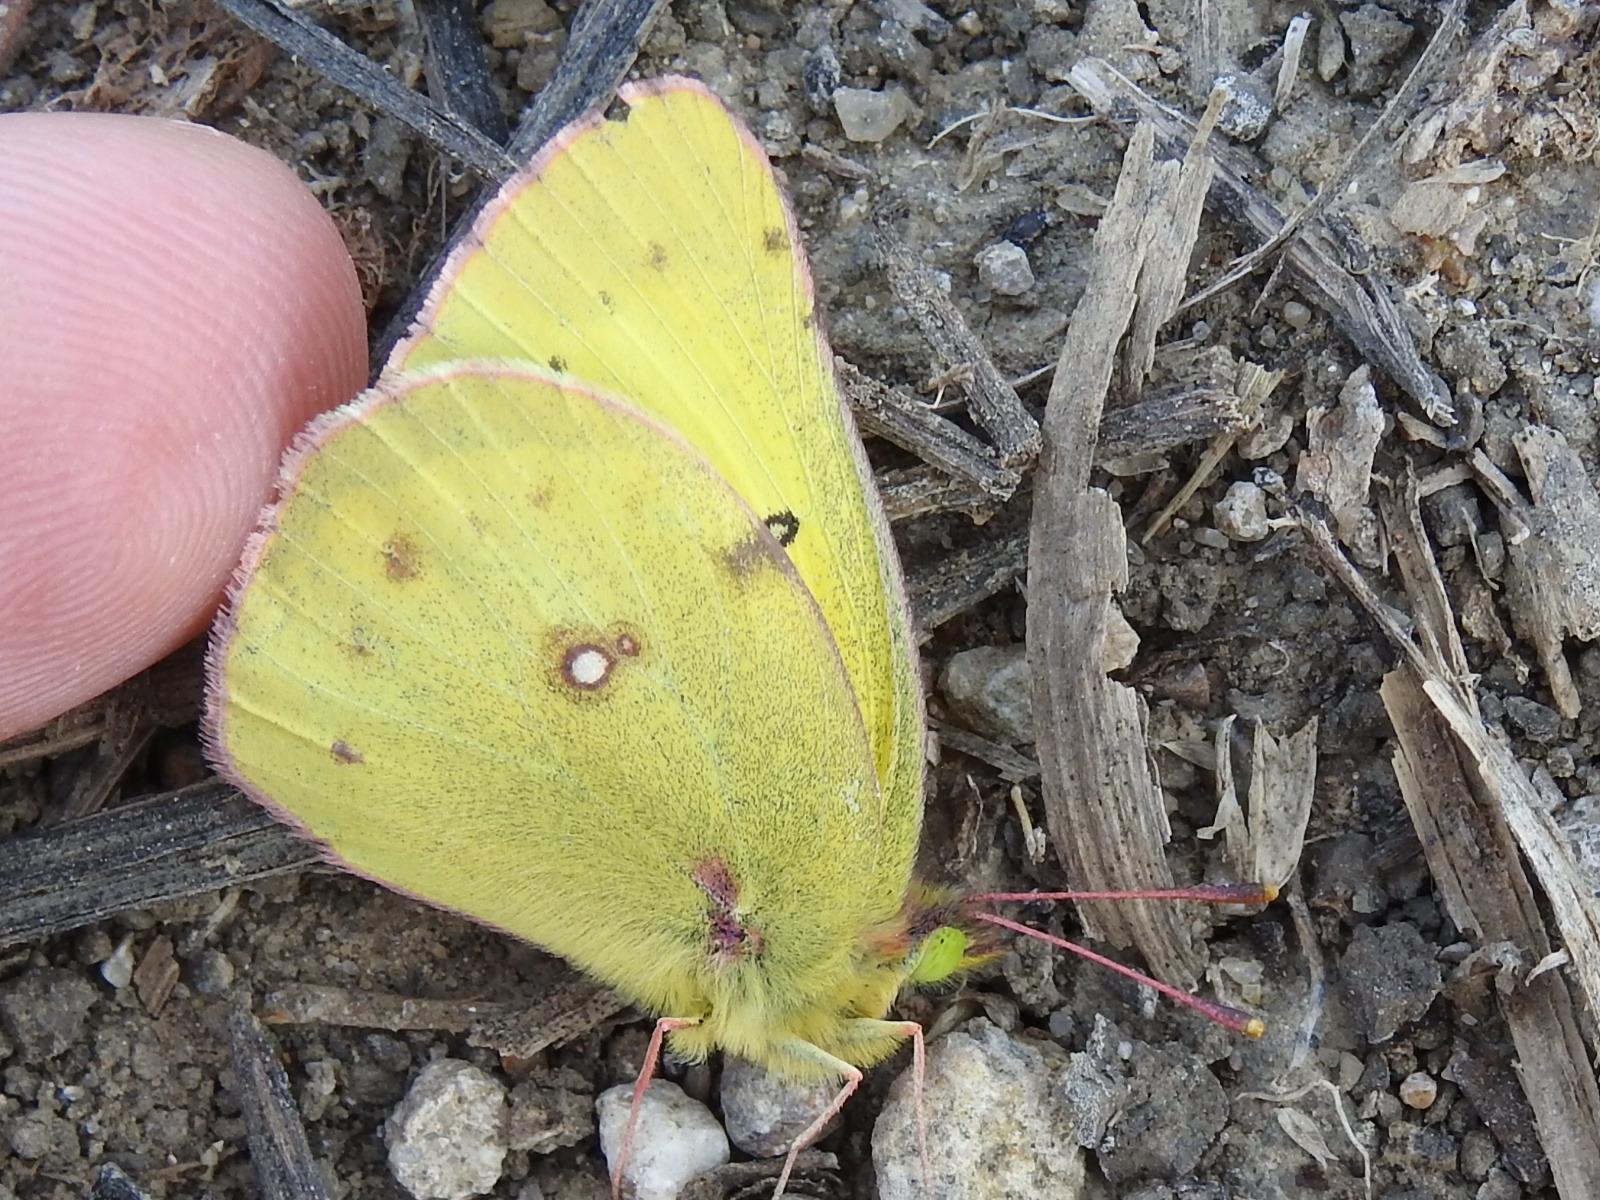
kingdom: Animalia
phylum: Arthropoda
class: Insecta
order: Lepidoptera
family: Pieridae
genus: Colias
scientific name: Colias eurytheme
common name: Alfalfa butterfly
